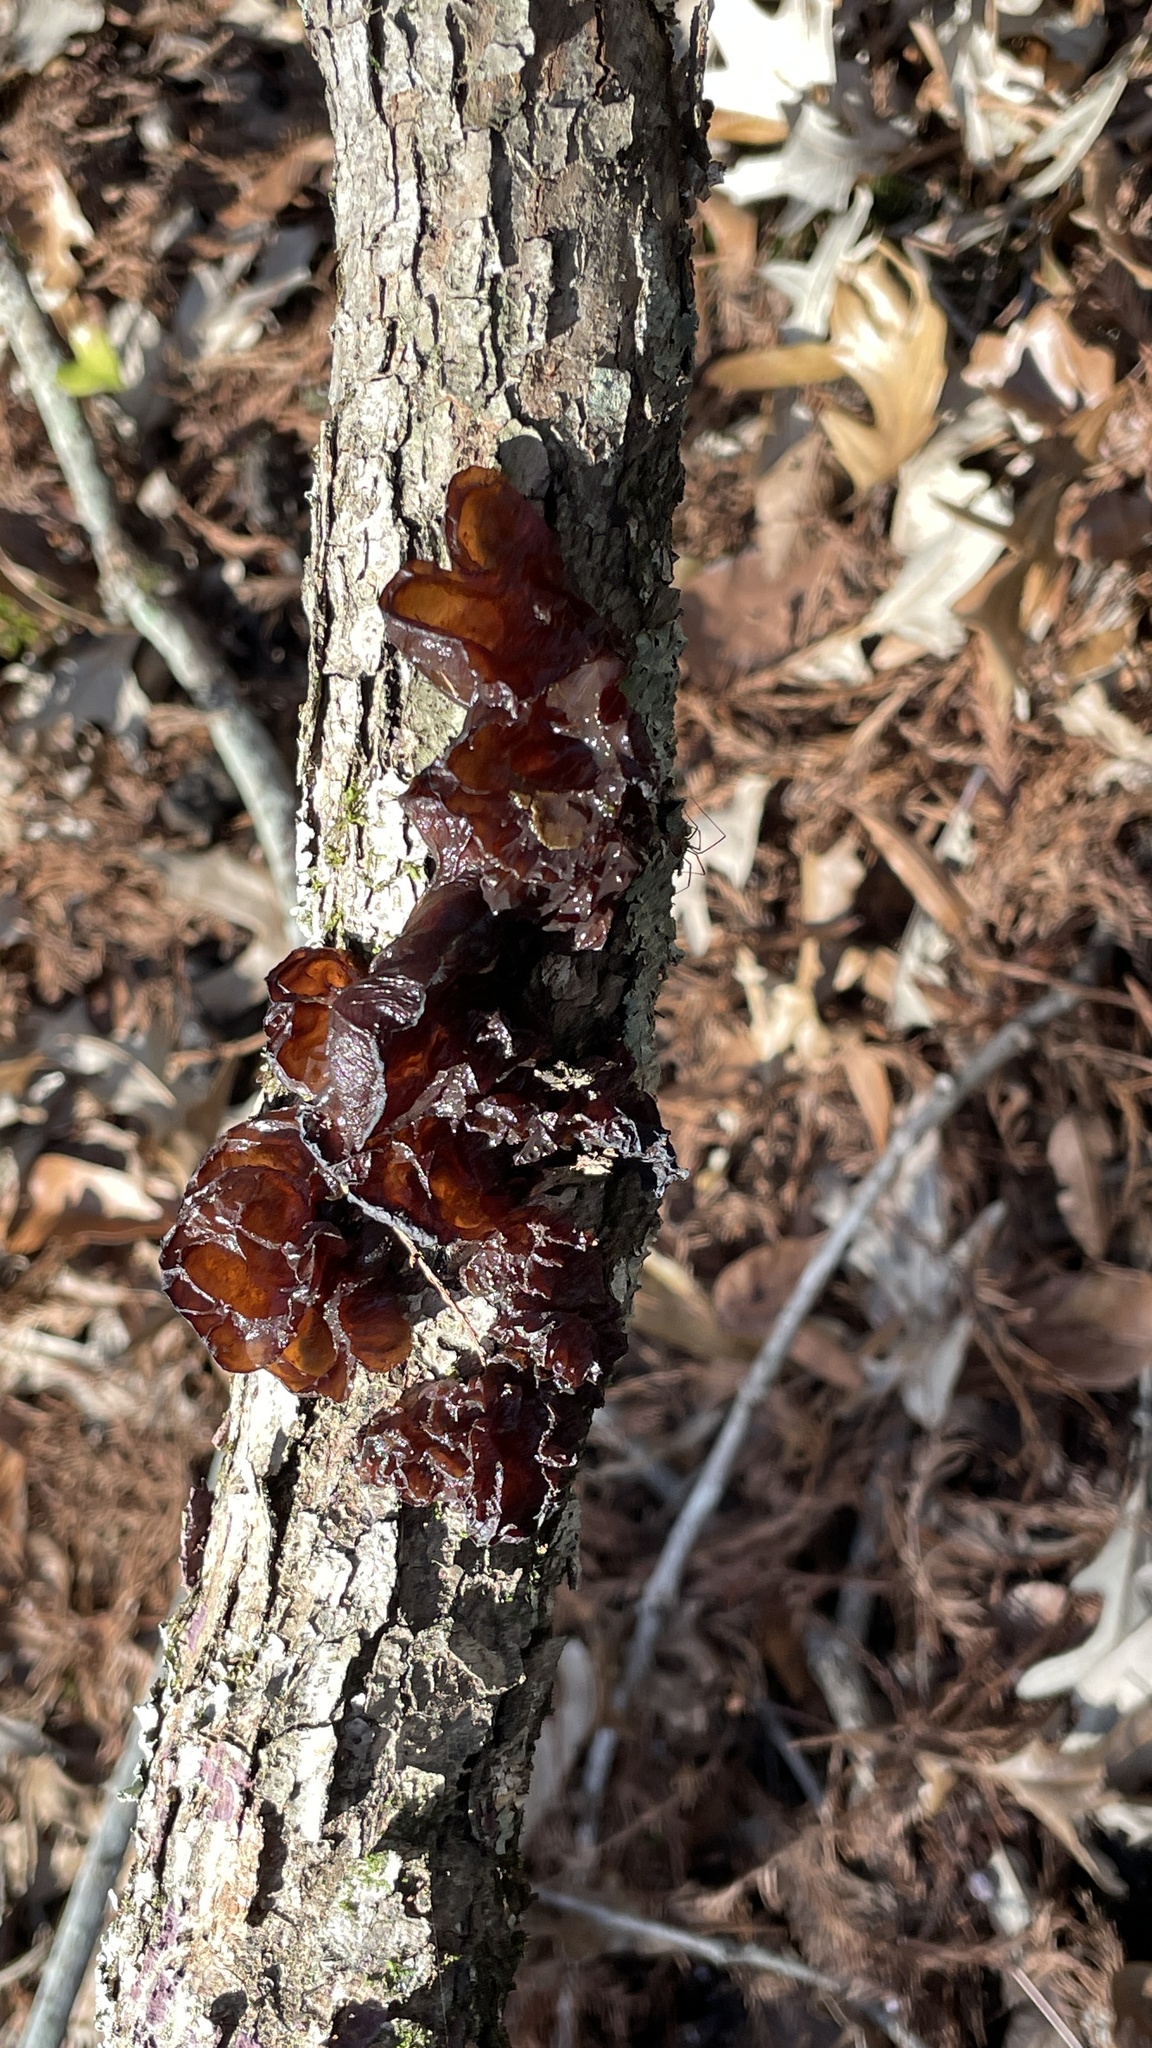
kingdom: Fungi
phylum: Basidiomycota
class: Agaricomycetes
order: Auriculariales
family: Auriculariaceae
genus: Exidia
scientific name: Exidia
